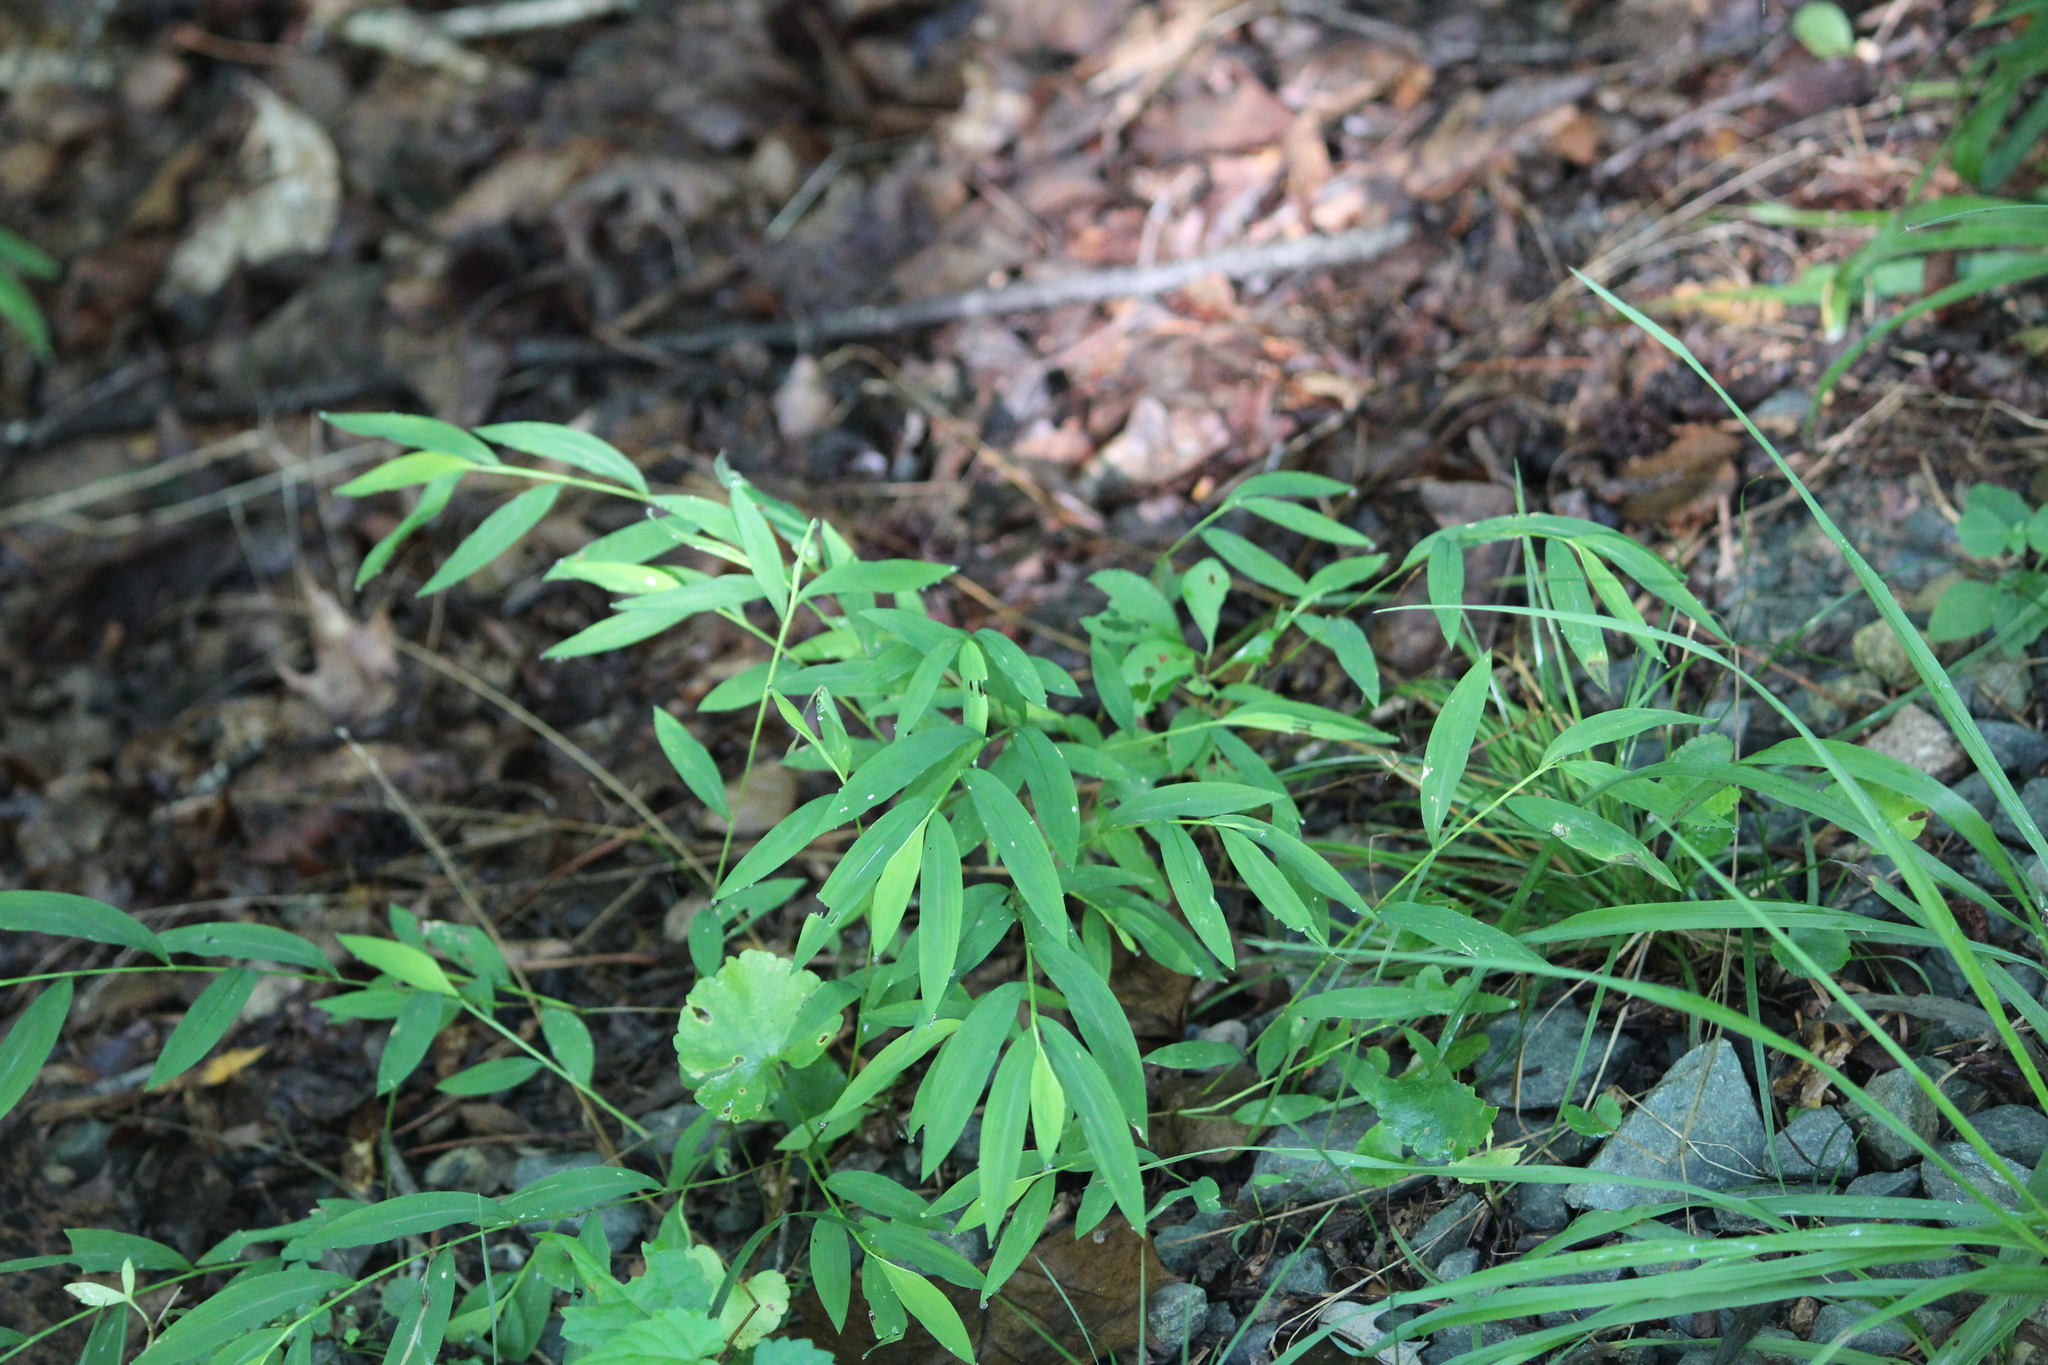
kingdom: Plantae
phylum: Tracheophyta
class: Liliopsida
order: Poales
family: Poaceae
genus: Microstegium
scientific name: Microstegium vimineum
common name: Japanese stiltgrass
